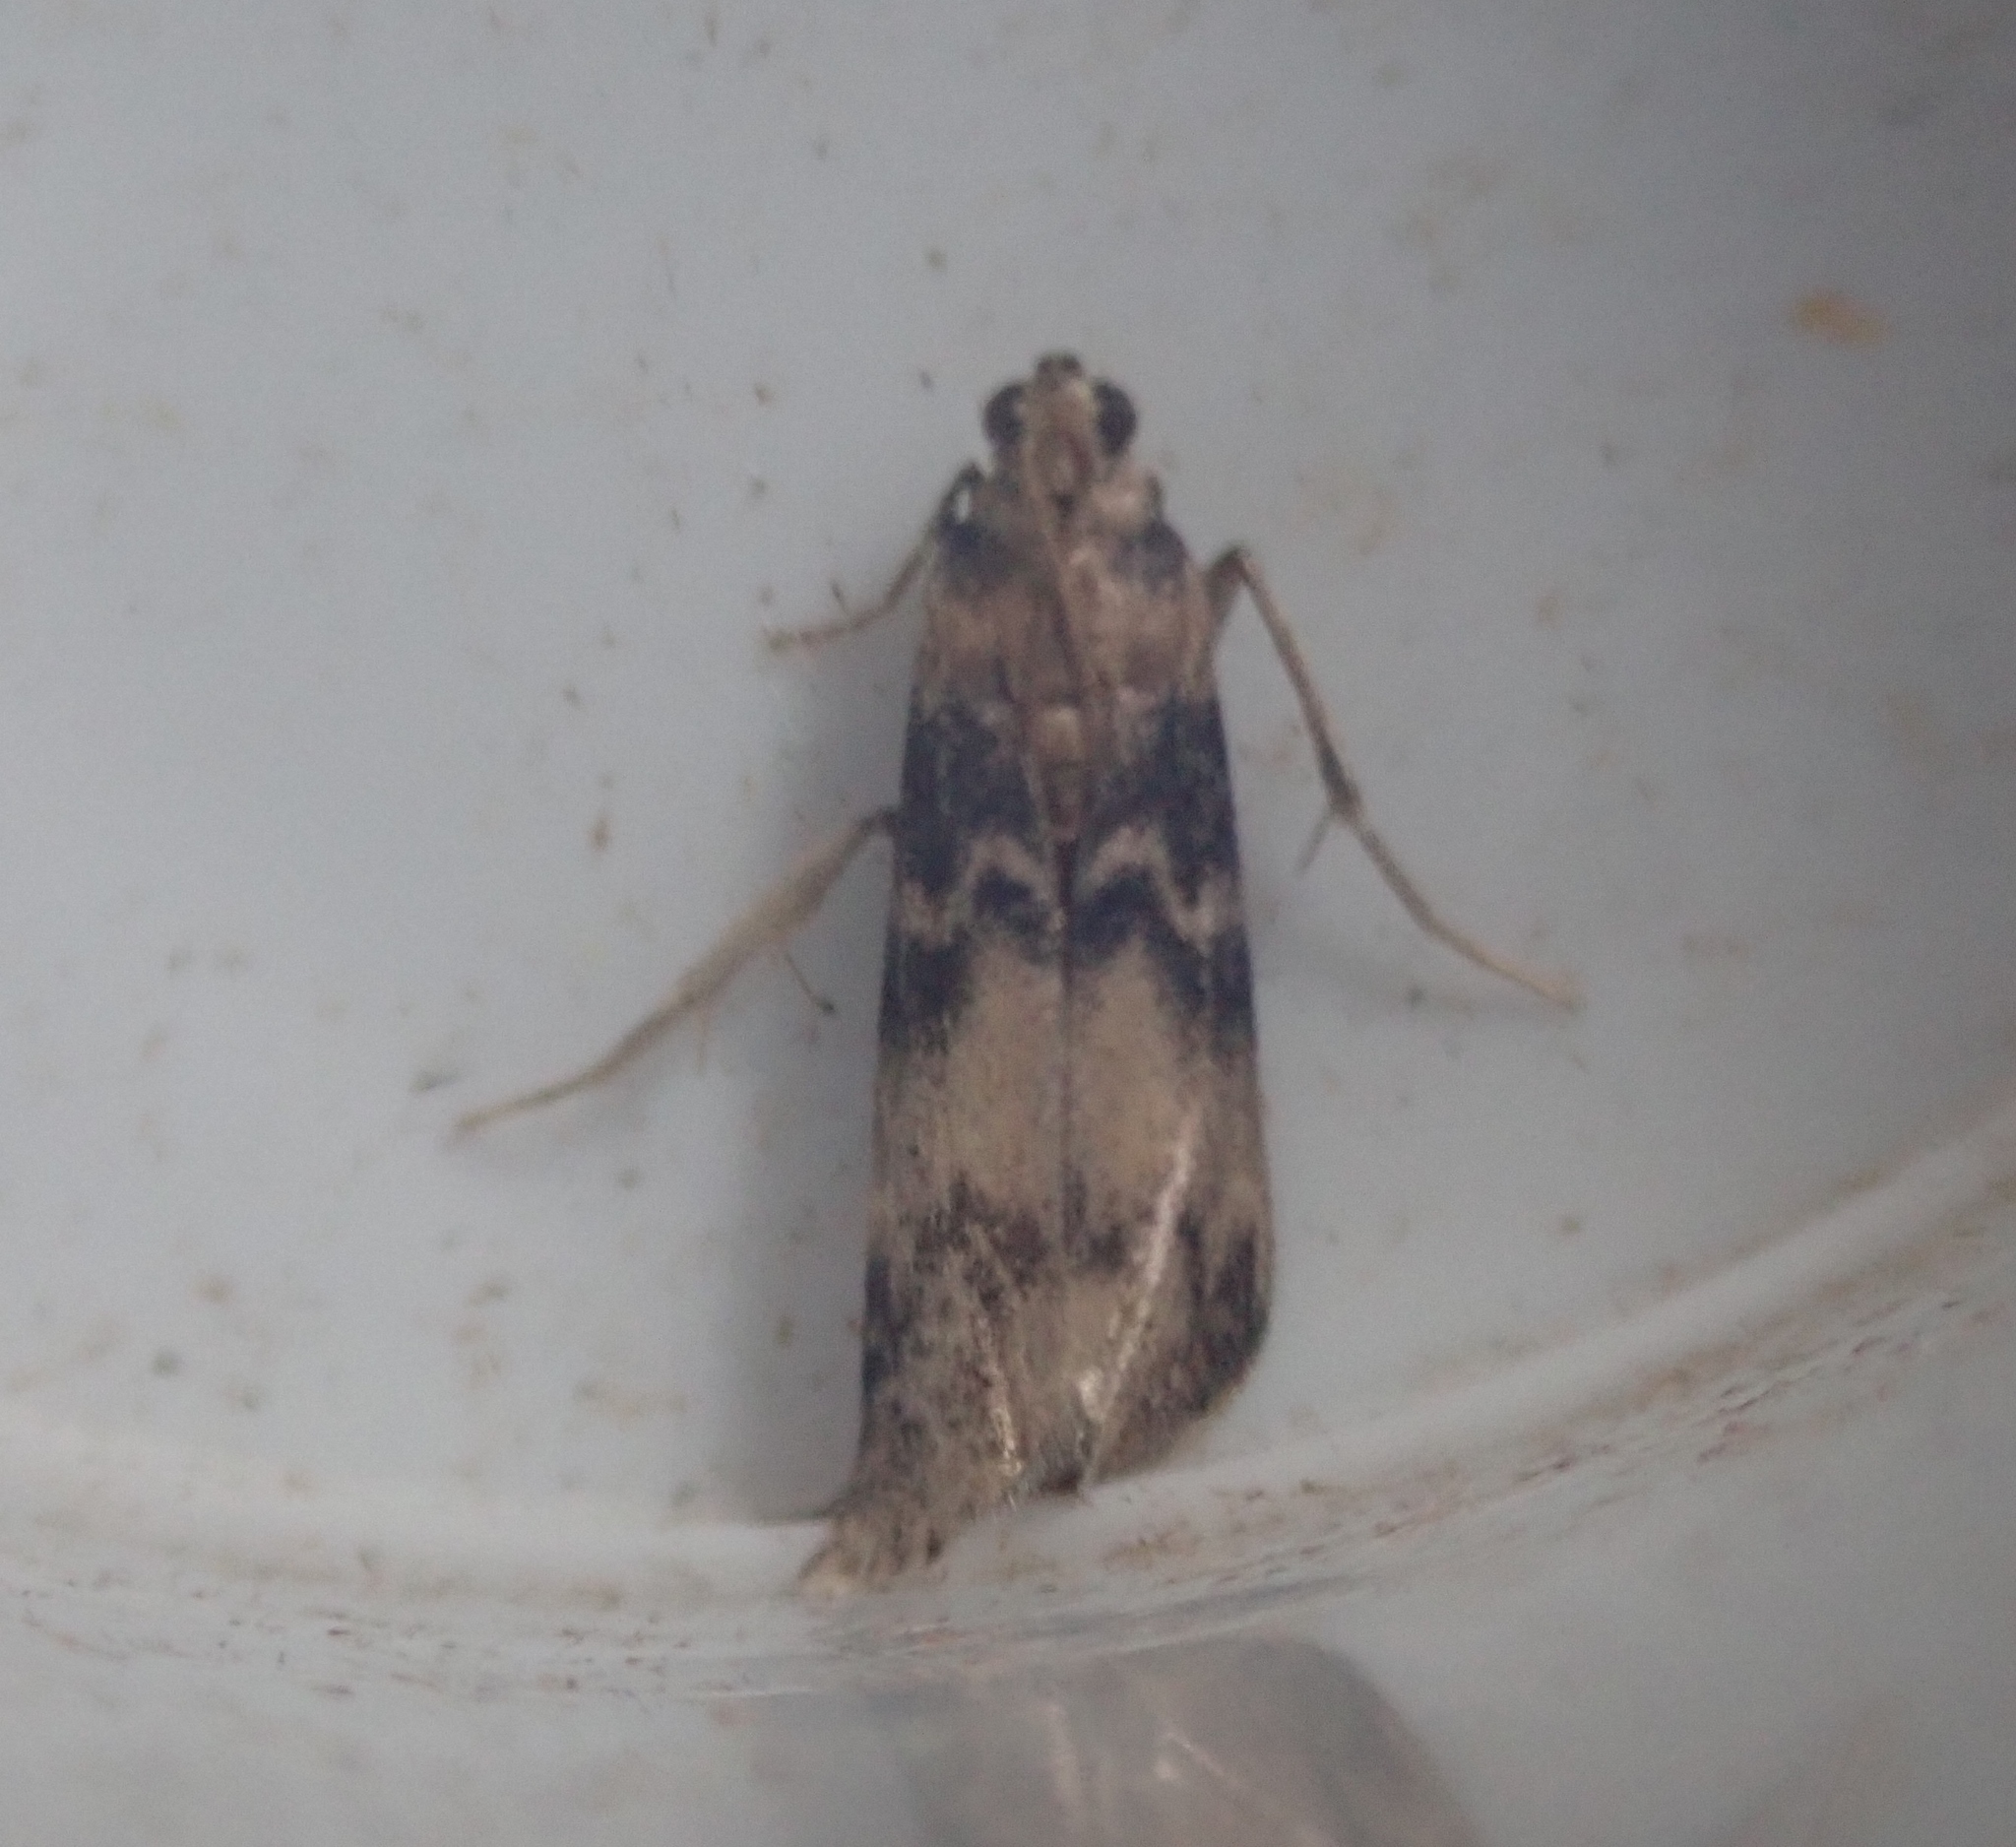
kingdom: Animalia
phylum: Arthropoda
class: Insecta
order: Lepidoptera
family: Pyralidae
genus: Euzophera
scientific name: Euzophera pinguis
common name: Ash-bark knot-horn
